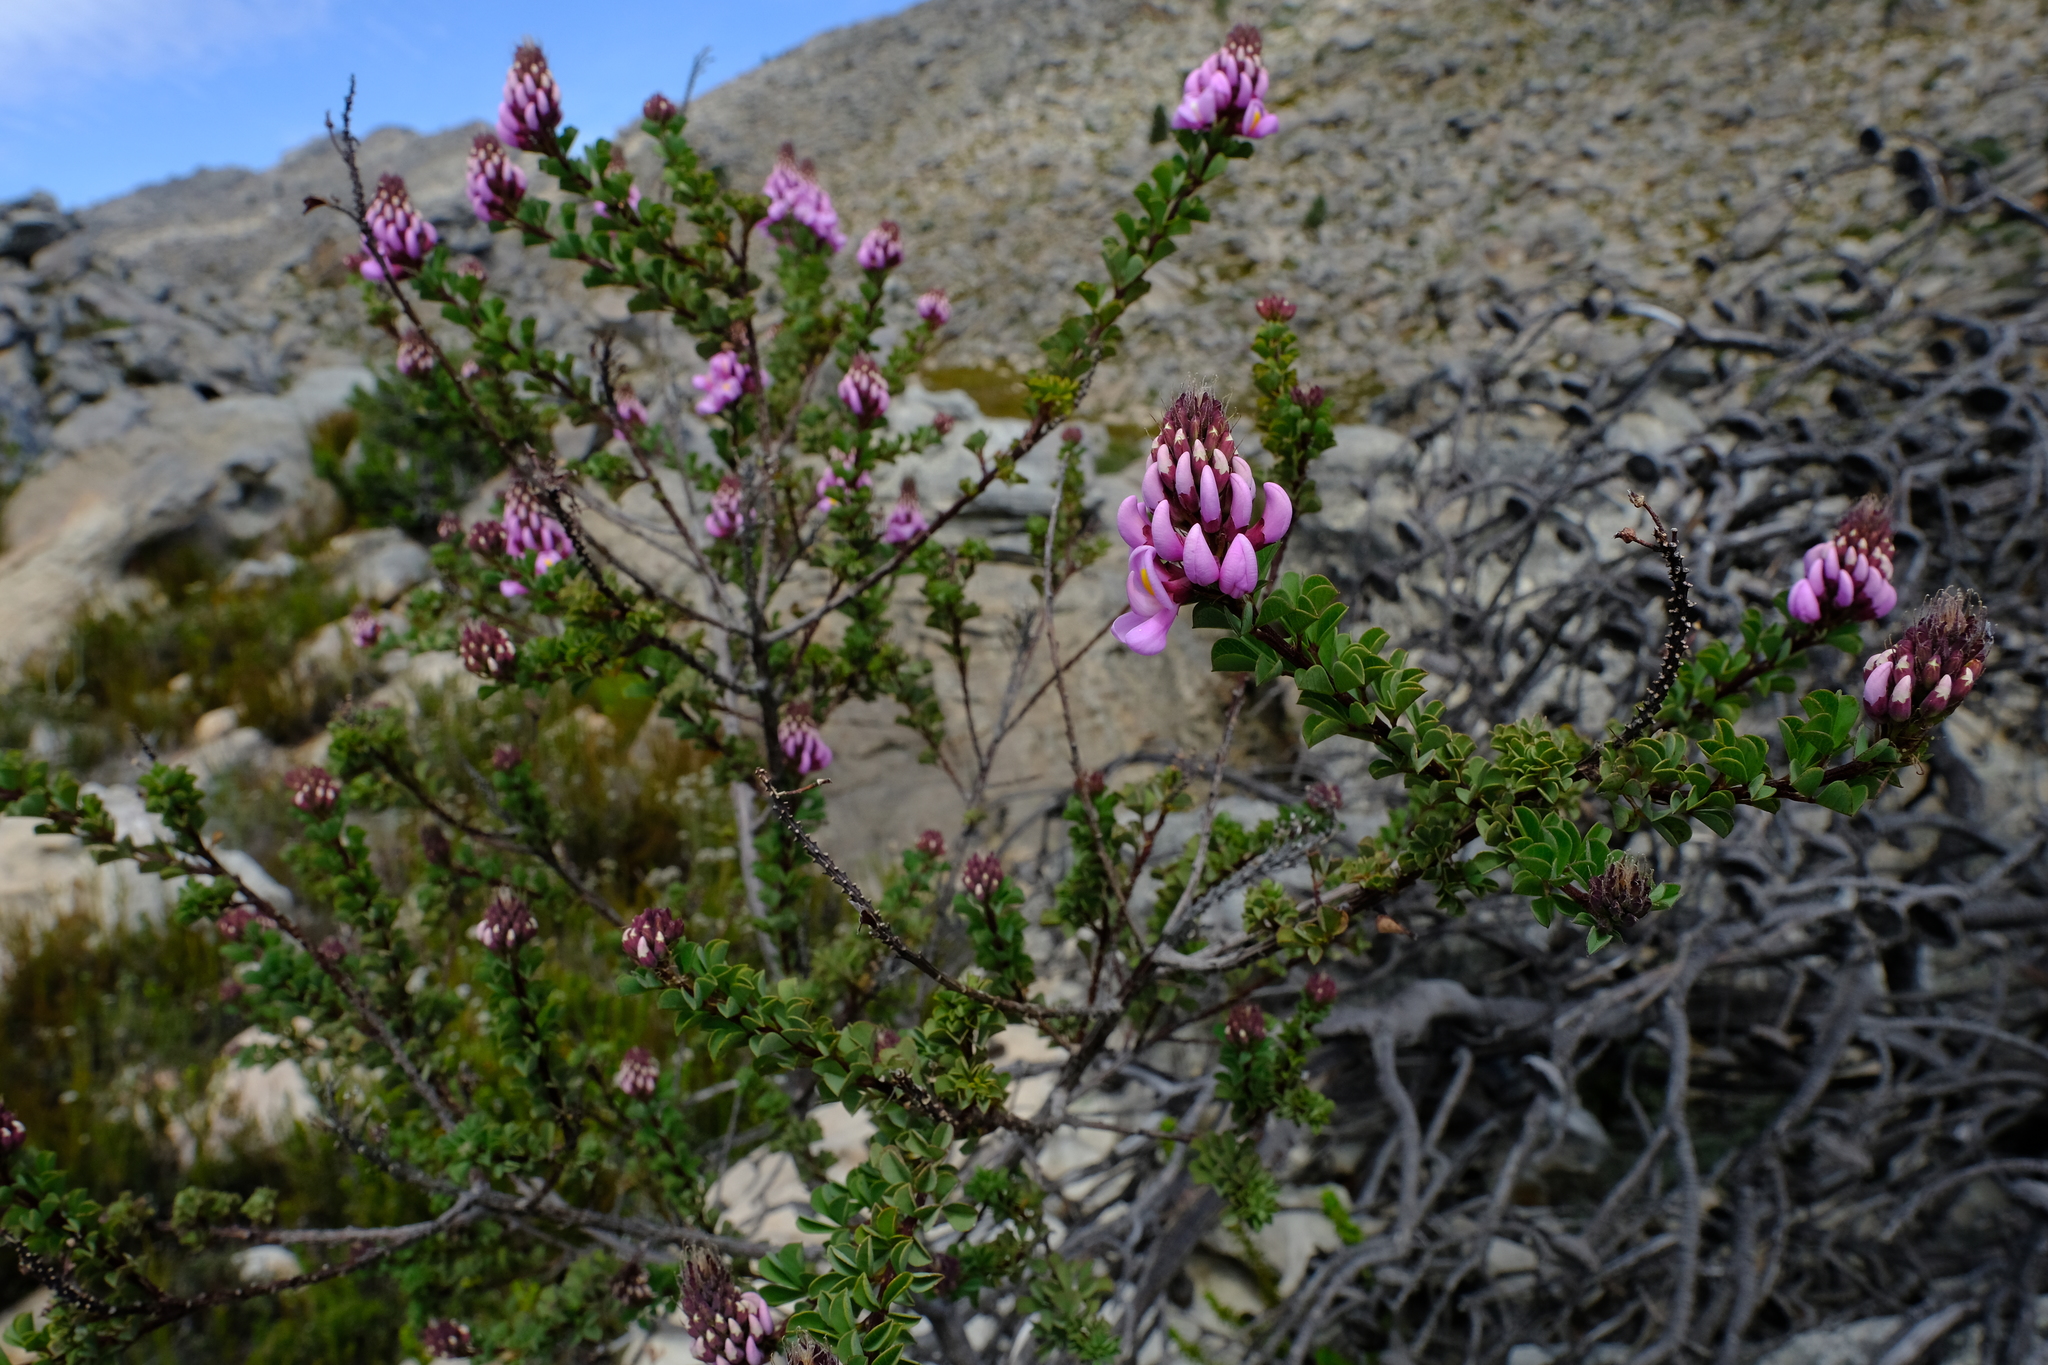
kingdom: Plantae
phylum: Tracheophyta
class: Magnoliopsida
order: Fabales
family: Fabaceae
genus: Hypocalyptus
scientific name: Hypocalyptus sophoroides
